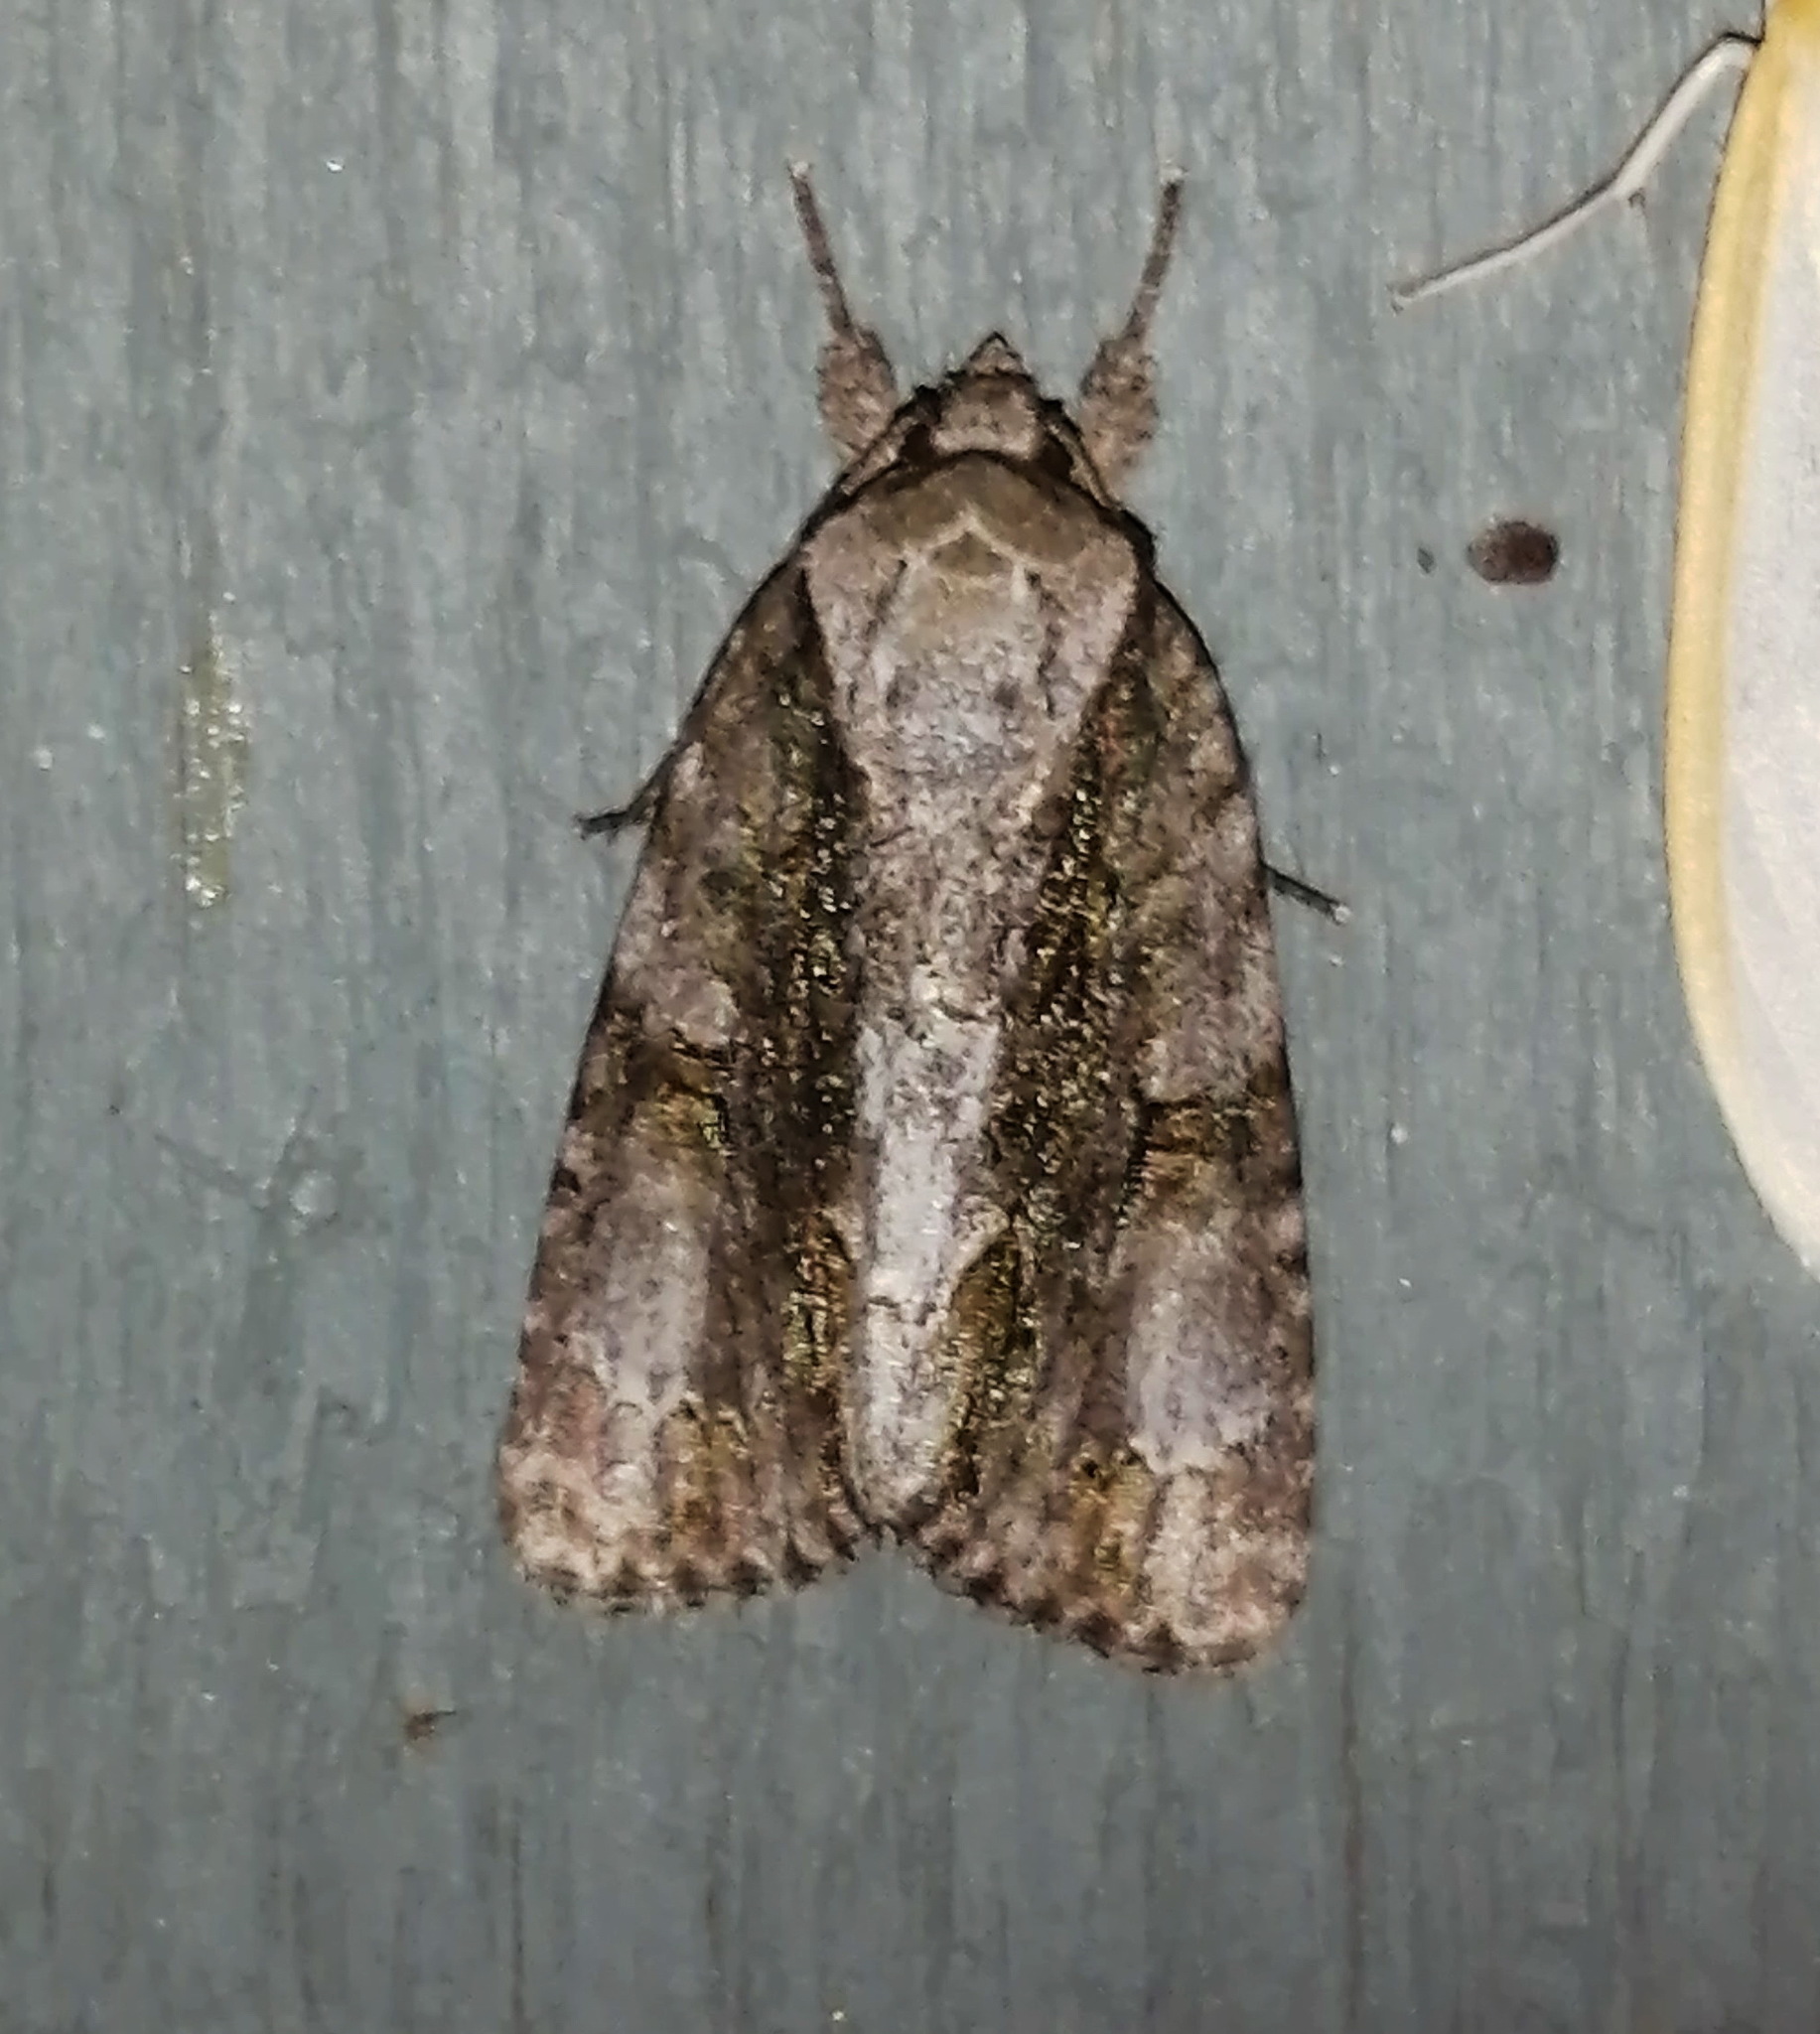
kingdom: Animalia
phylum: Arthropoda
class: Insecta
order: Lepidoptera
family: Noctuidae
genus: Acronicta
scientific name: Acronicta connecta
